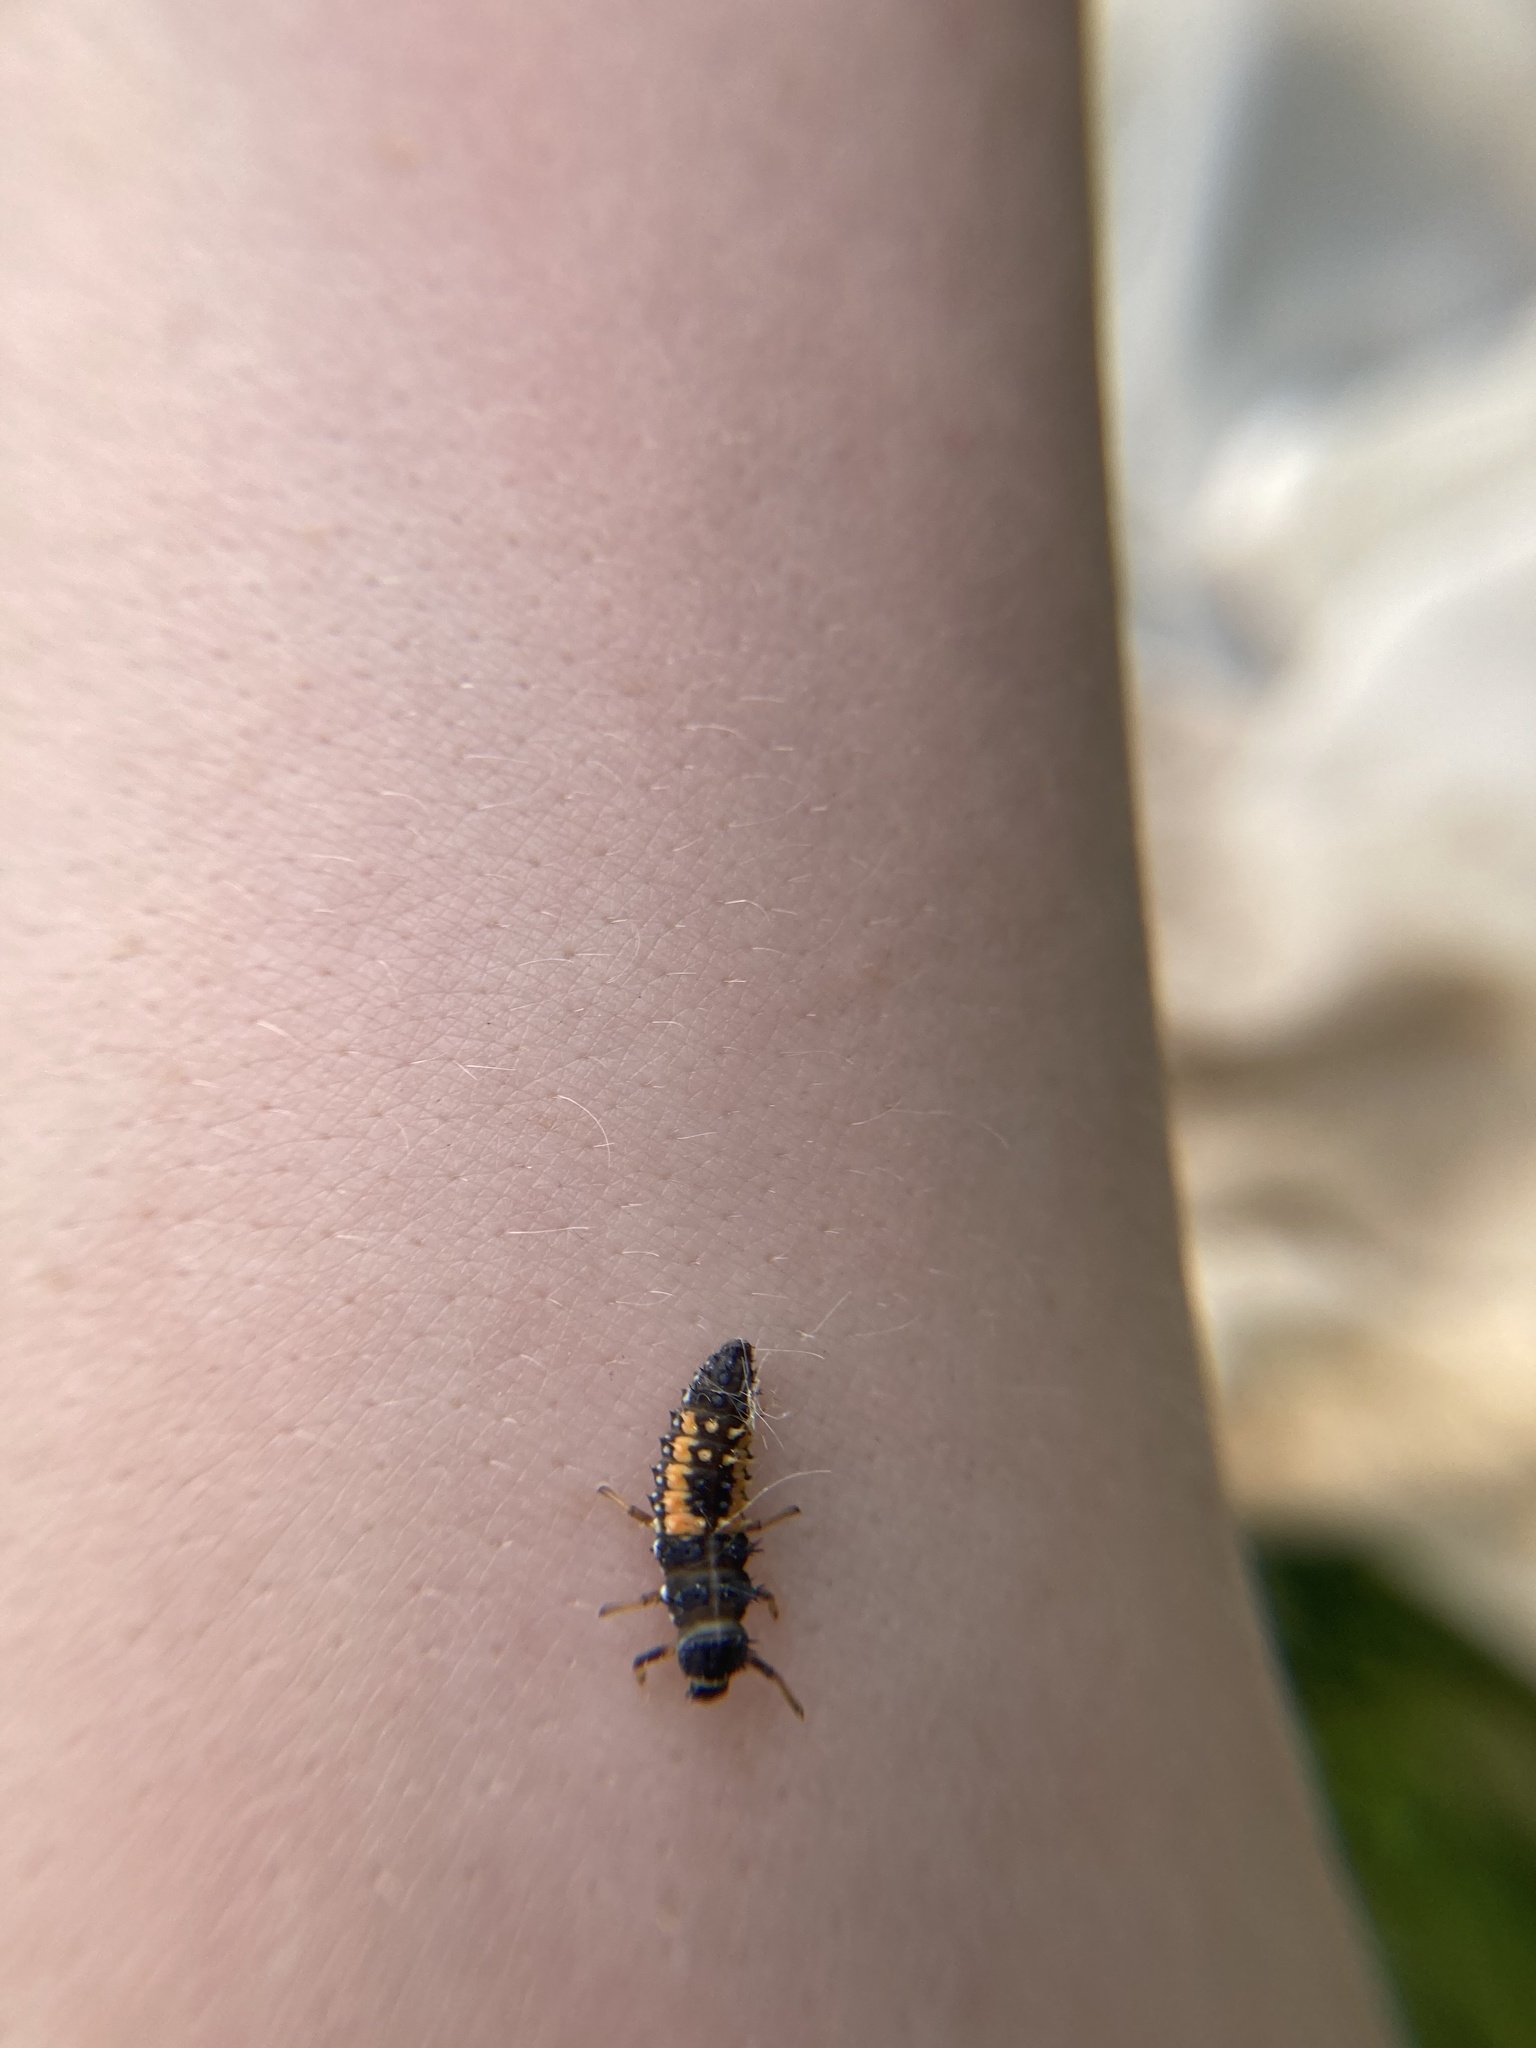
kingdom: Animalia
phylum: Arthropoda
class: Insecta
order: Coleoptera
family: Coccinellidae
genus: Harmonia
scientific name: Harmonia axyridis
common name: Harlequin ladybird
